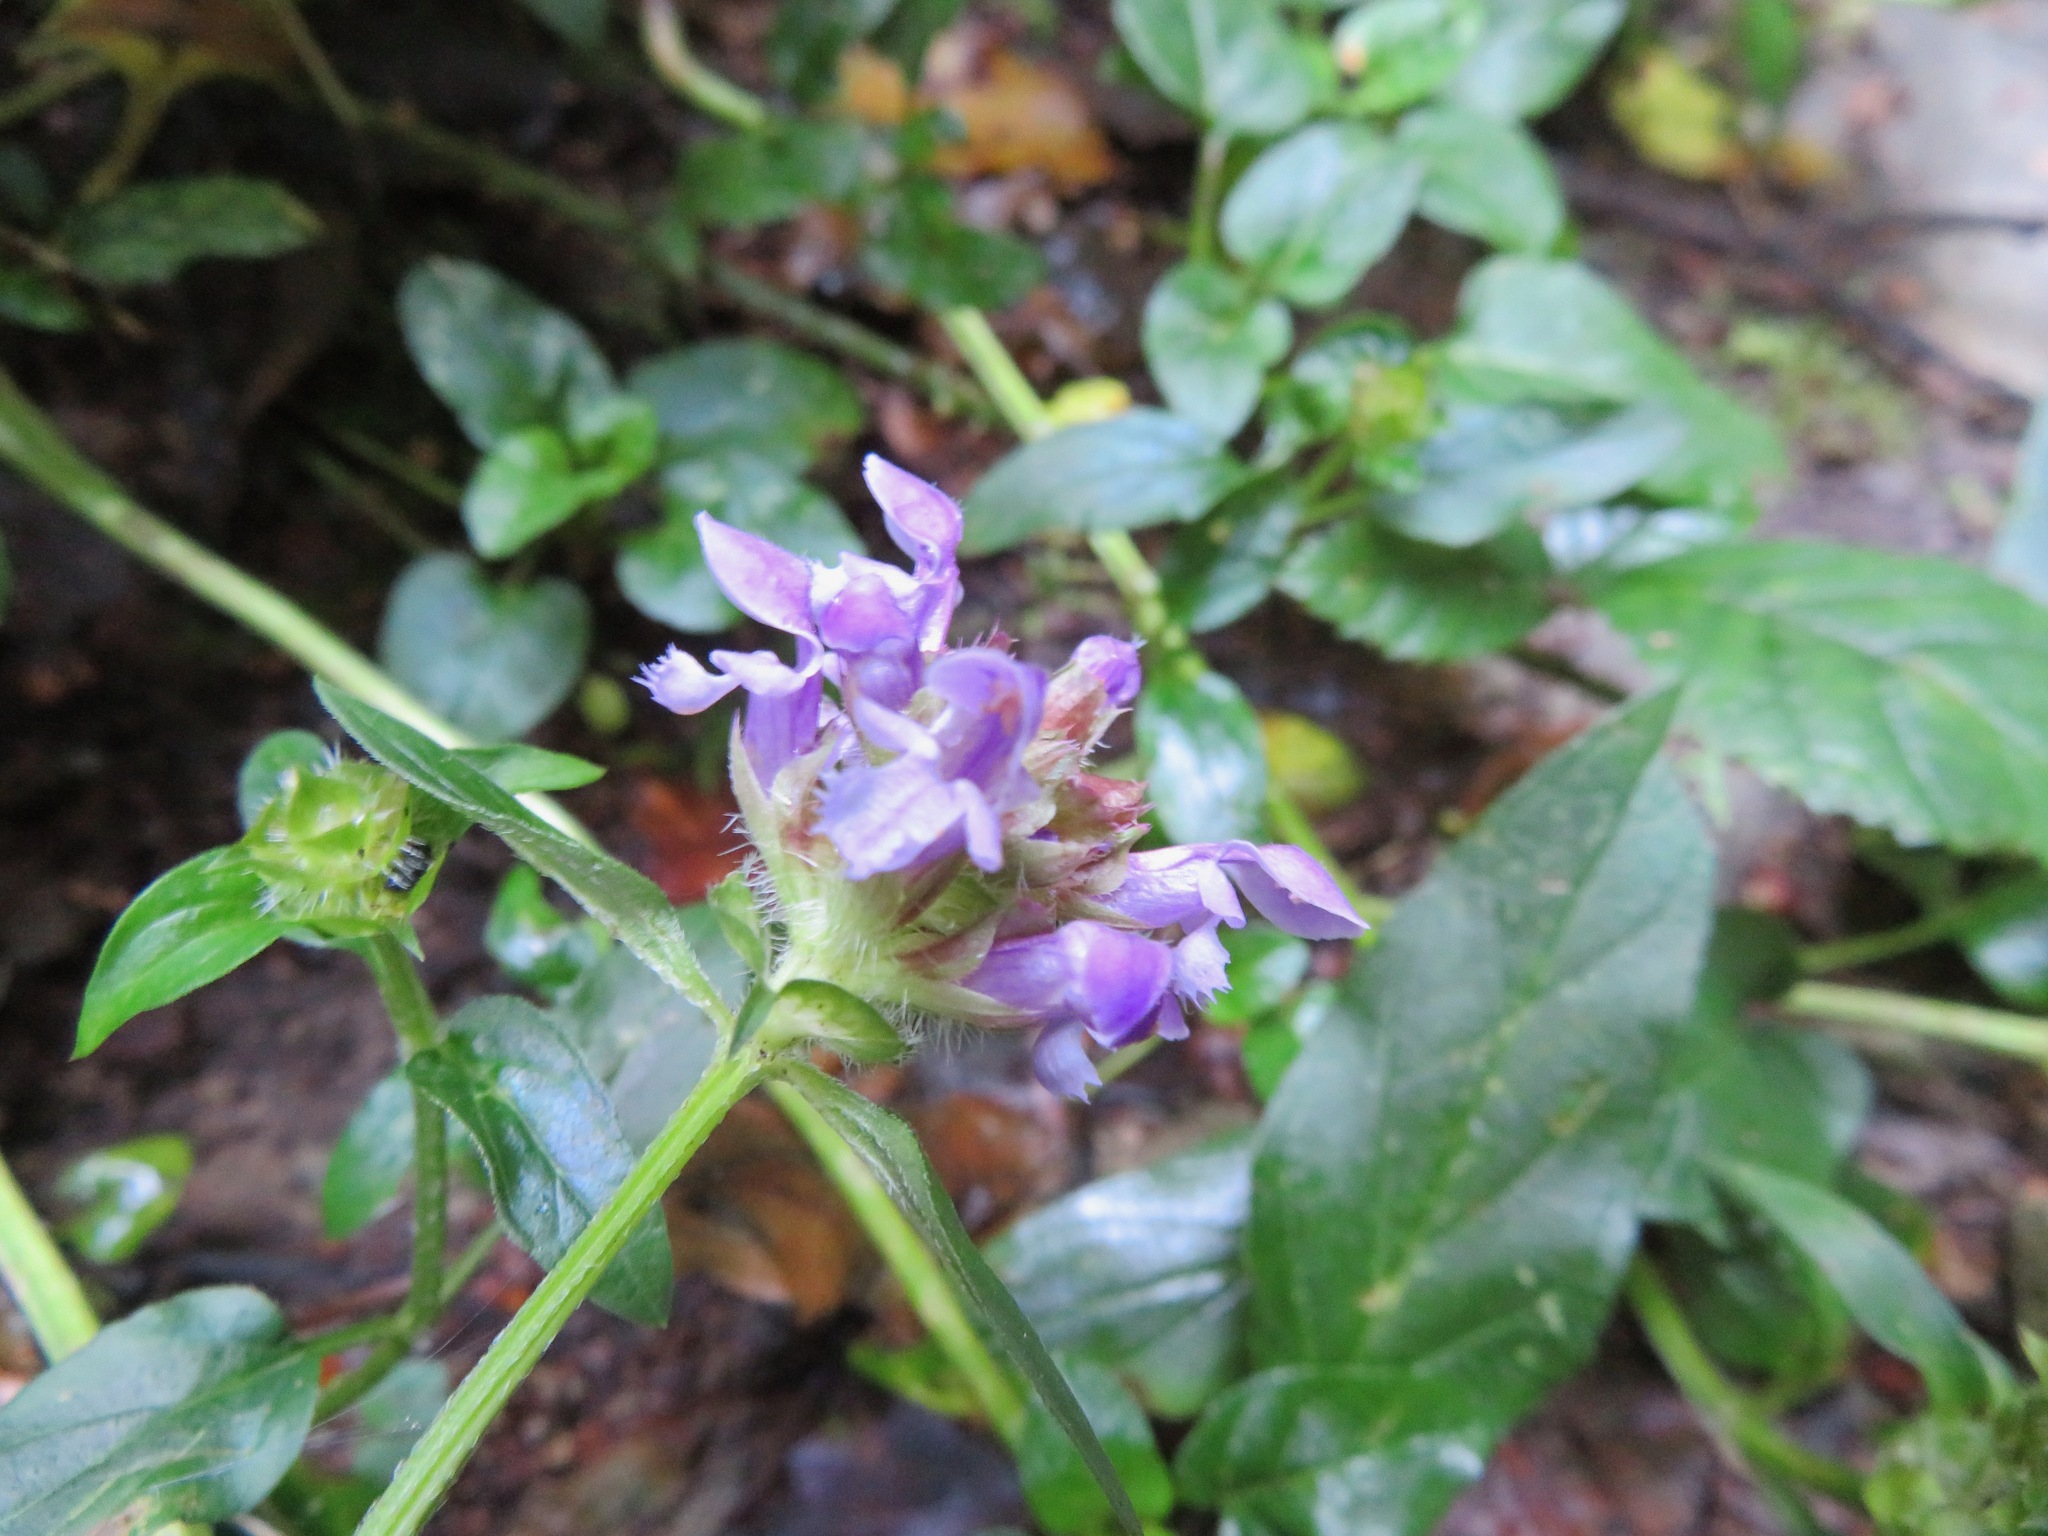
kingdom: Plantae
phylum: Tracheophyta
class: Magnoliopsida
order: Lamiales
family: Lamiaceae
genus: Prunella
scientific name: Prunella vulgaris
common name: Heal-all
